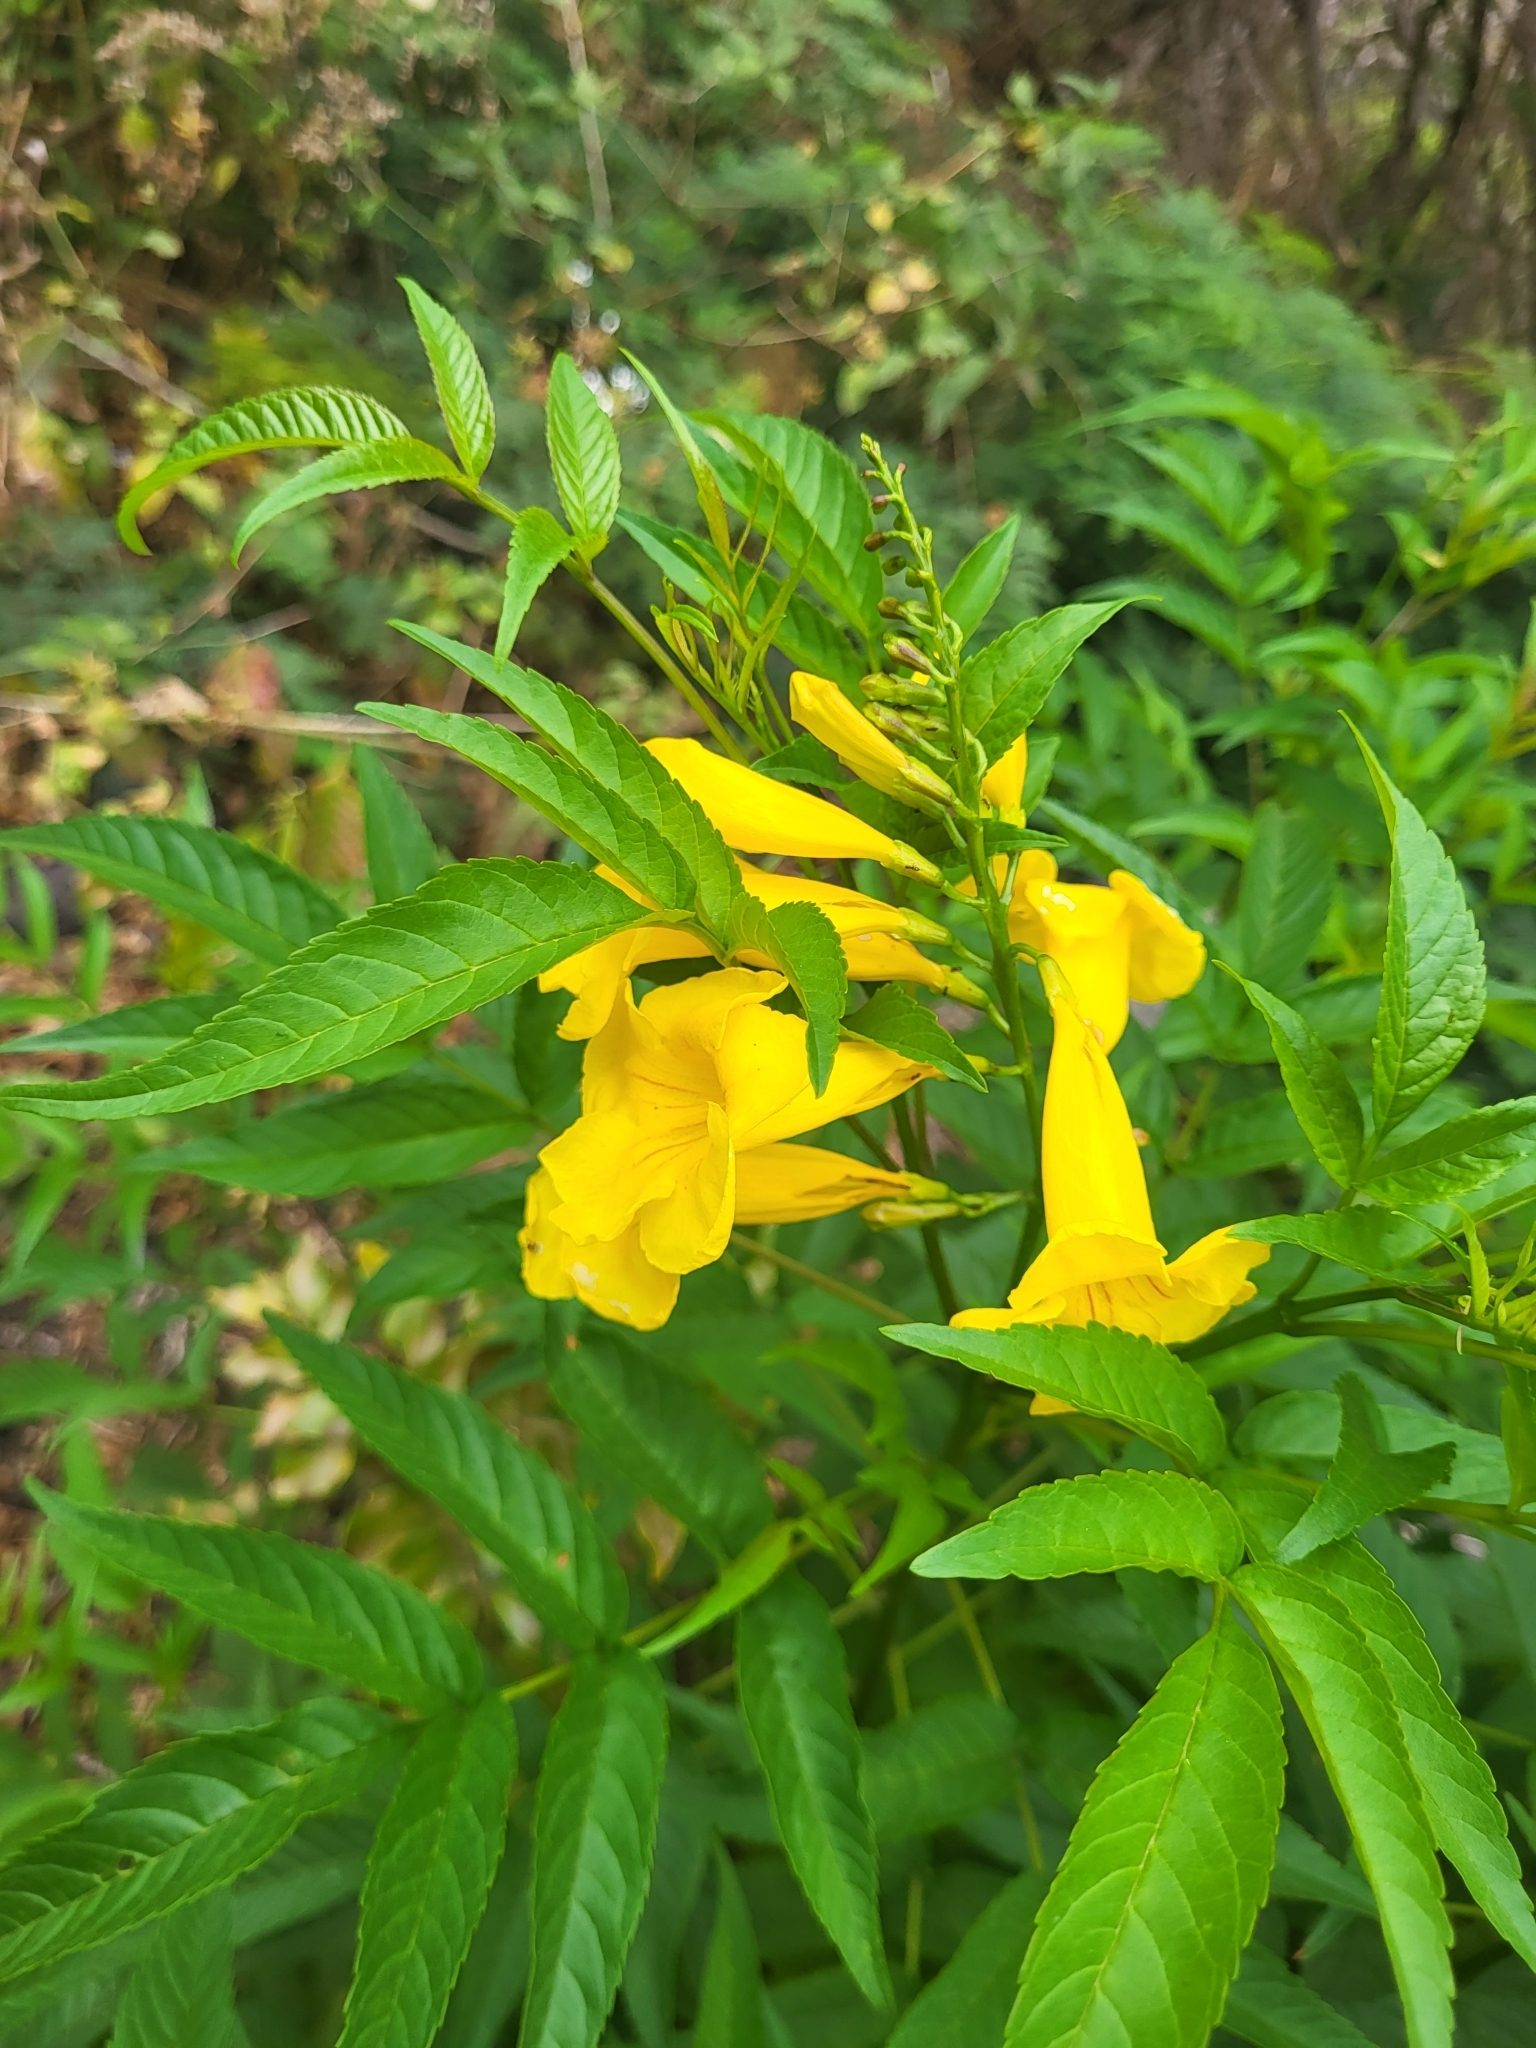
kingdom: Plantae
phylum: Tracheophyta
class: Magnoliopsida
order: Lamiales
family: Bignoniaceae
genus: Tecoma
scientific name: Tecoma stans
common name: Yellow trumpetbush
